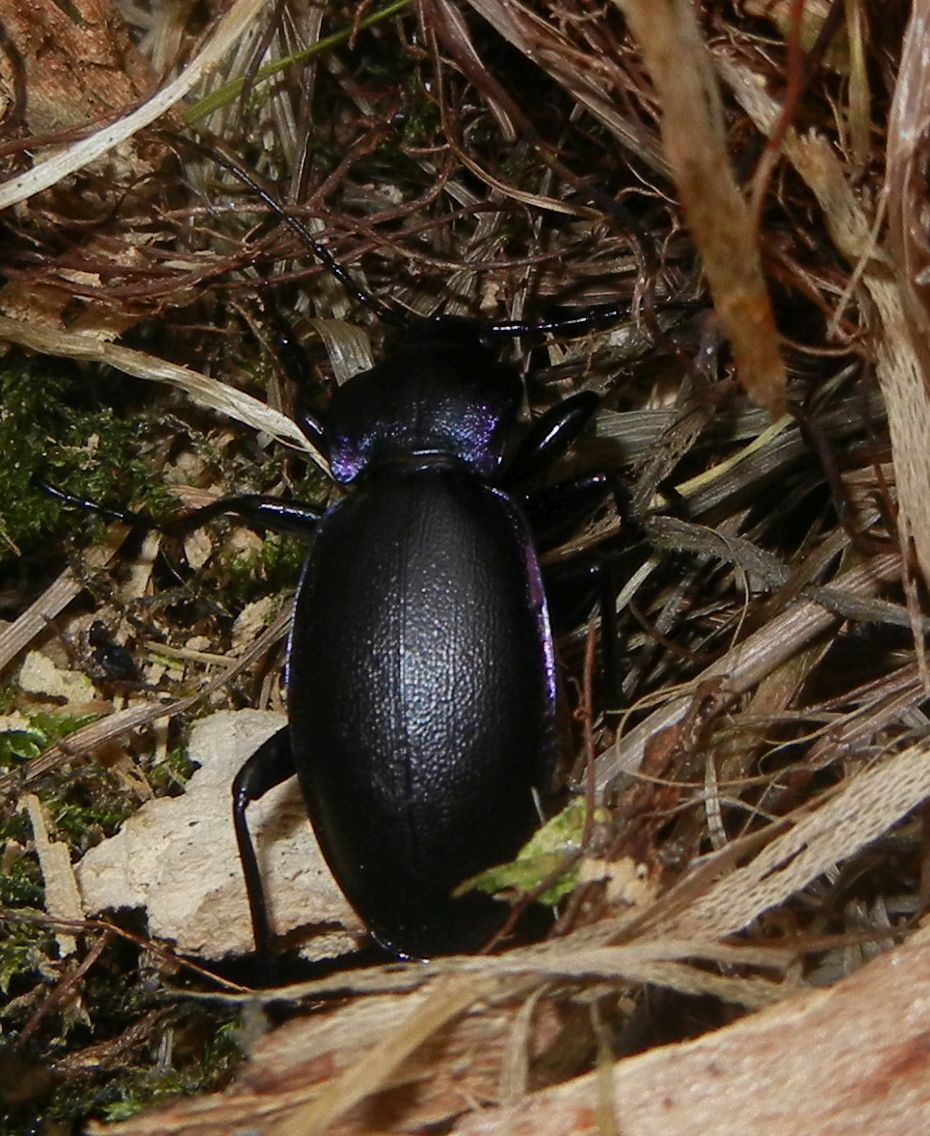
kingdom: Animalia
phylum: Arthropoda
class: Insecta
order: Coleoptera
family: Carabidae
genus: Carabus
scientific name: Carabus violaceus
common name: Violet ground beetle
